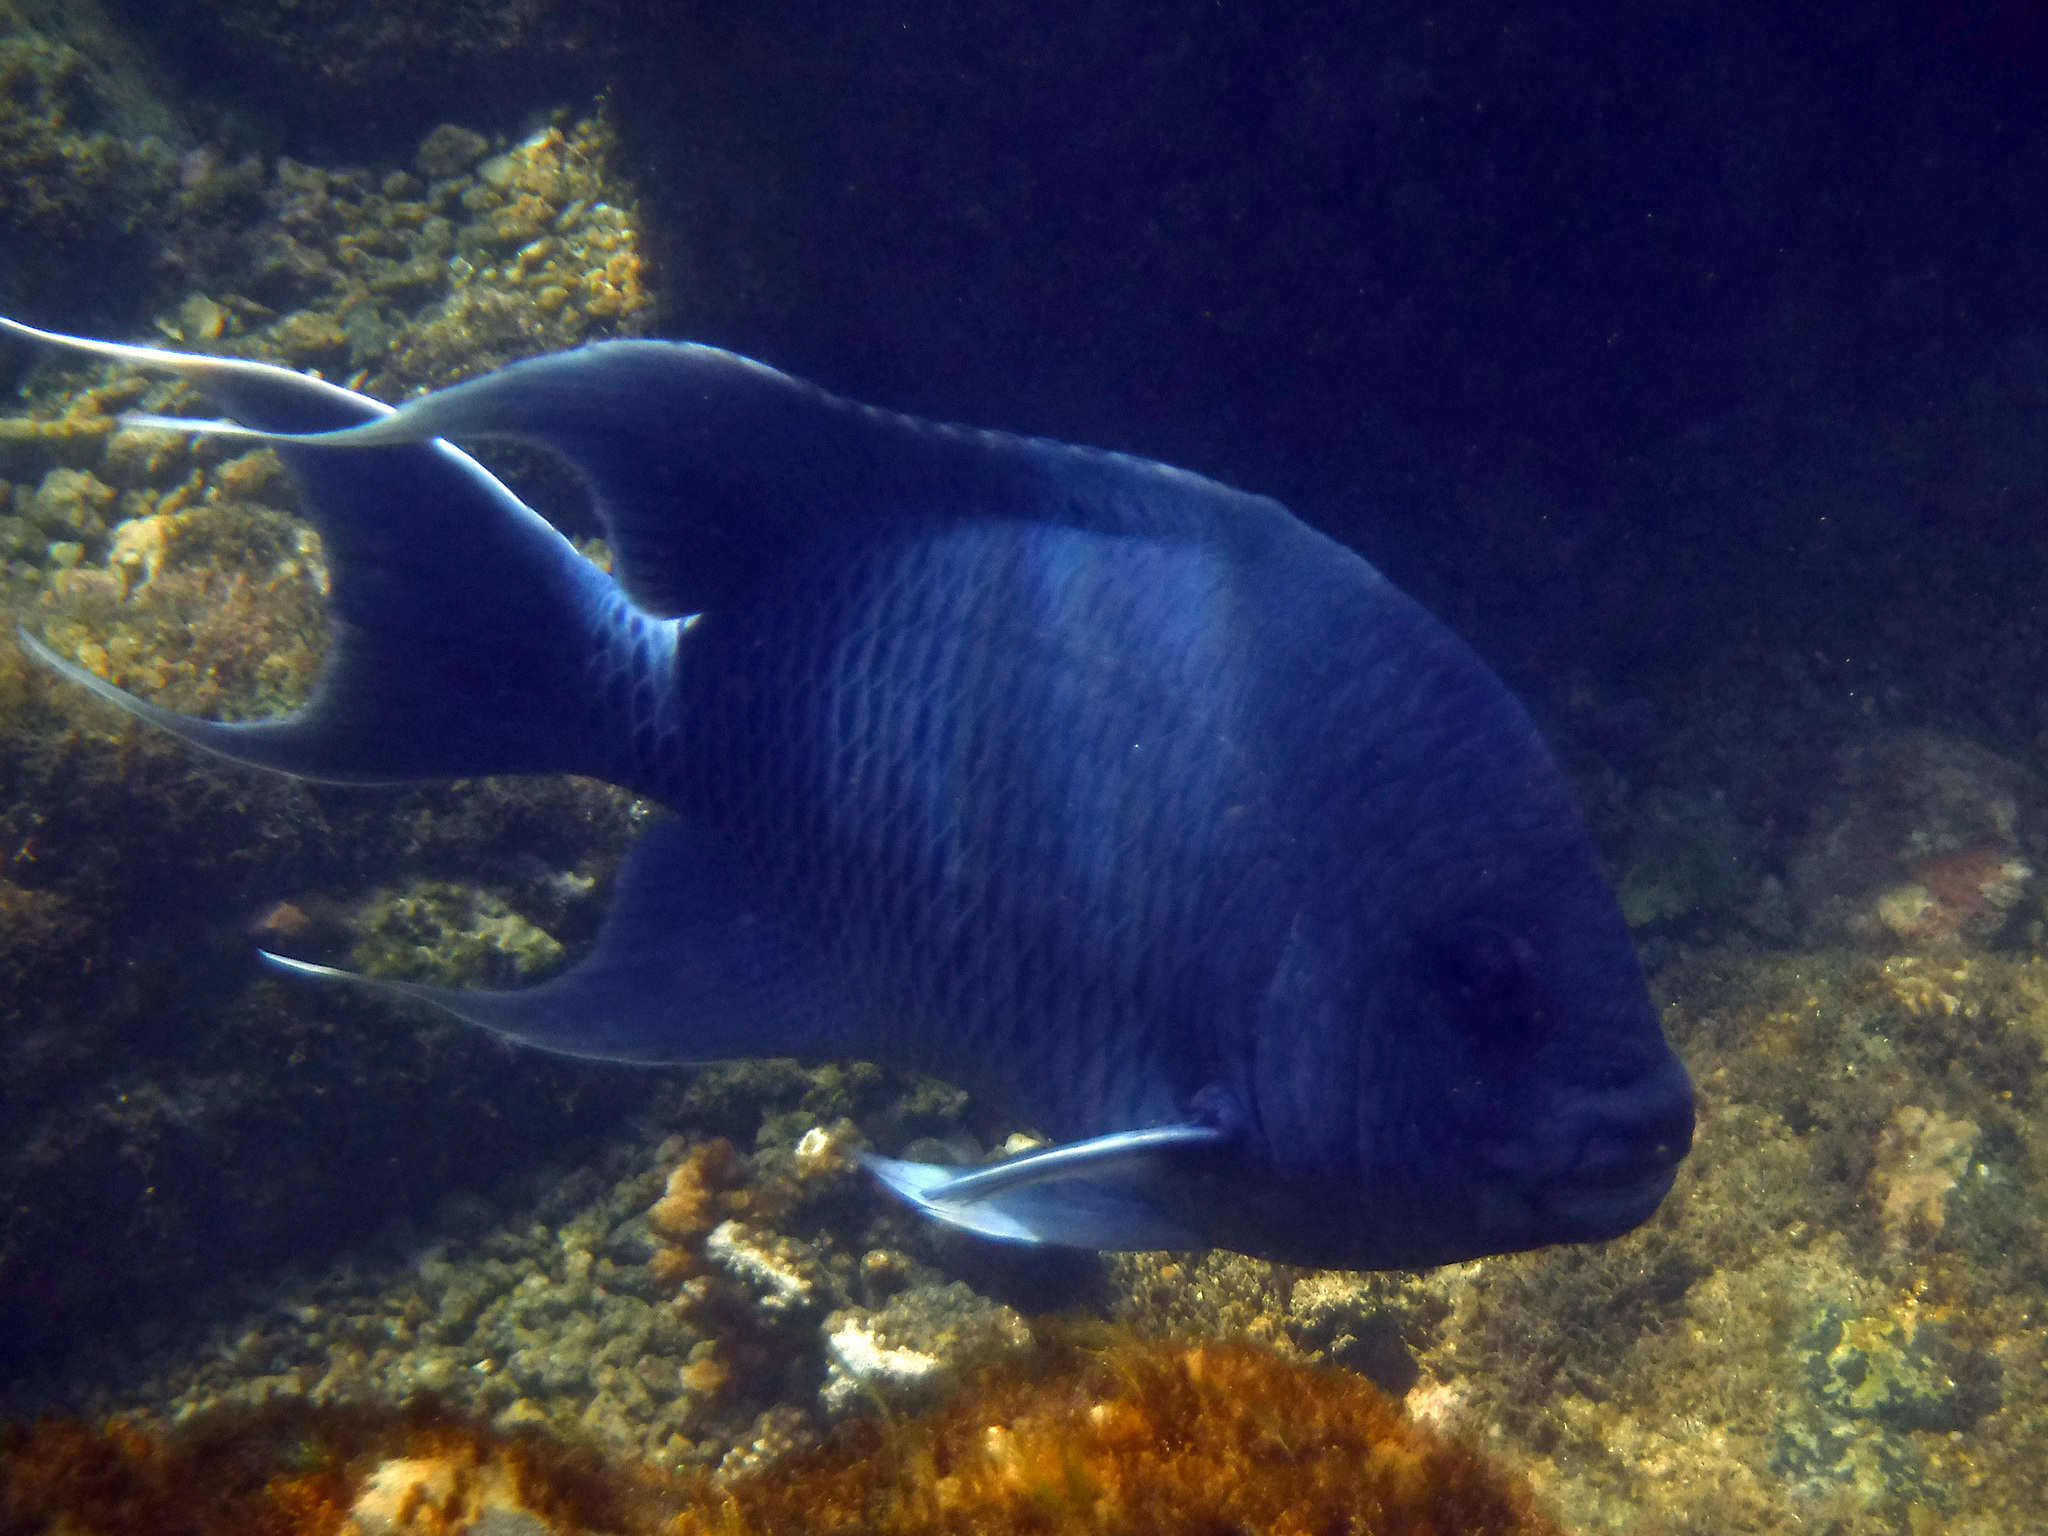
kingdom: Animalia
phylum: Chordata
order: Perciformes
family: Pomacentridae
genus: Microspathodon
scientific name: Microspathodon dorsalis
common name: Giant damselfish
